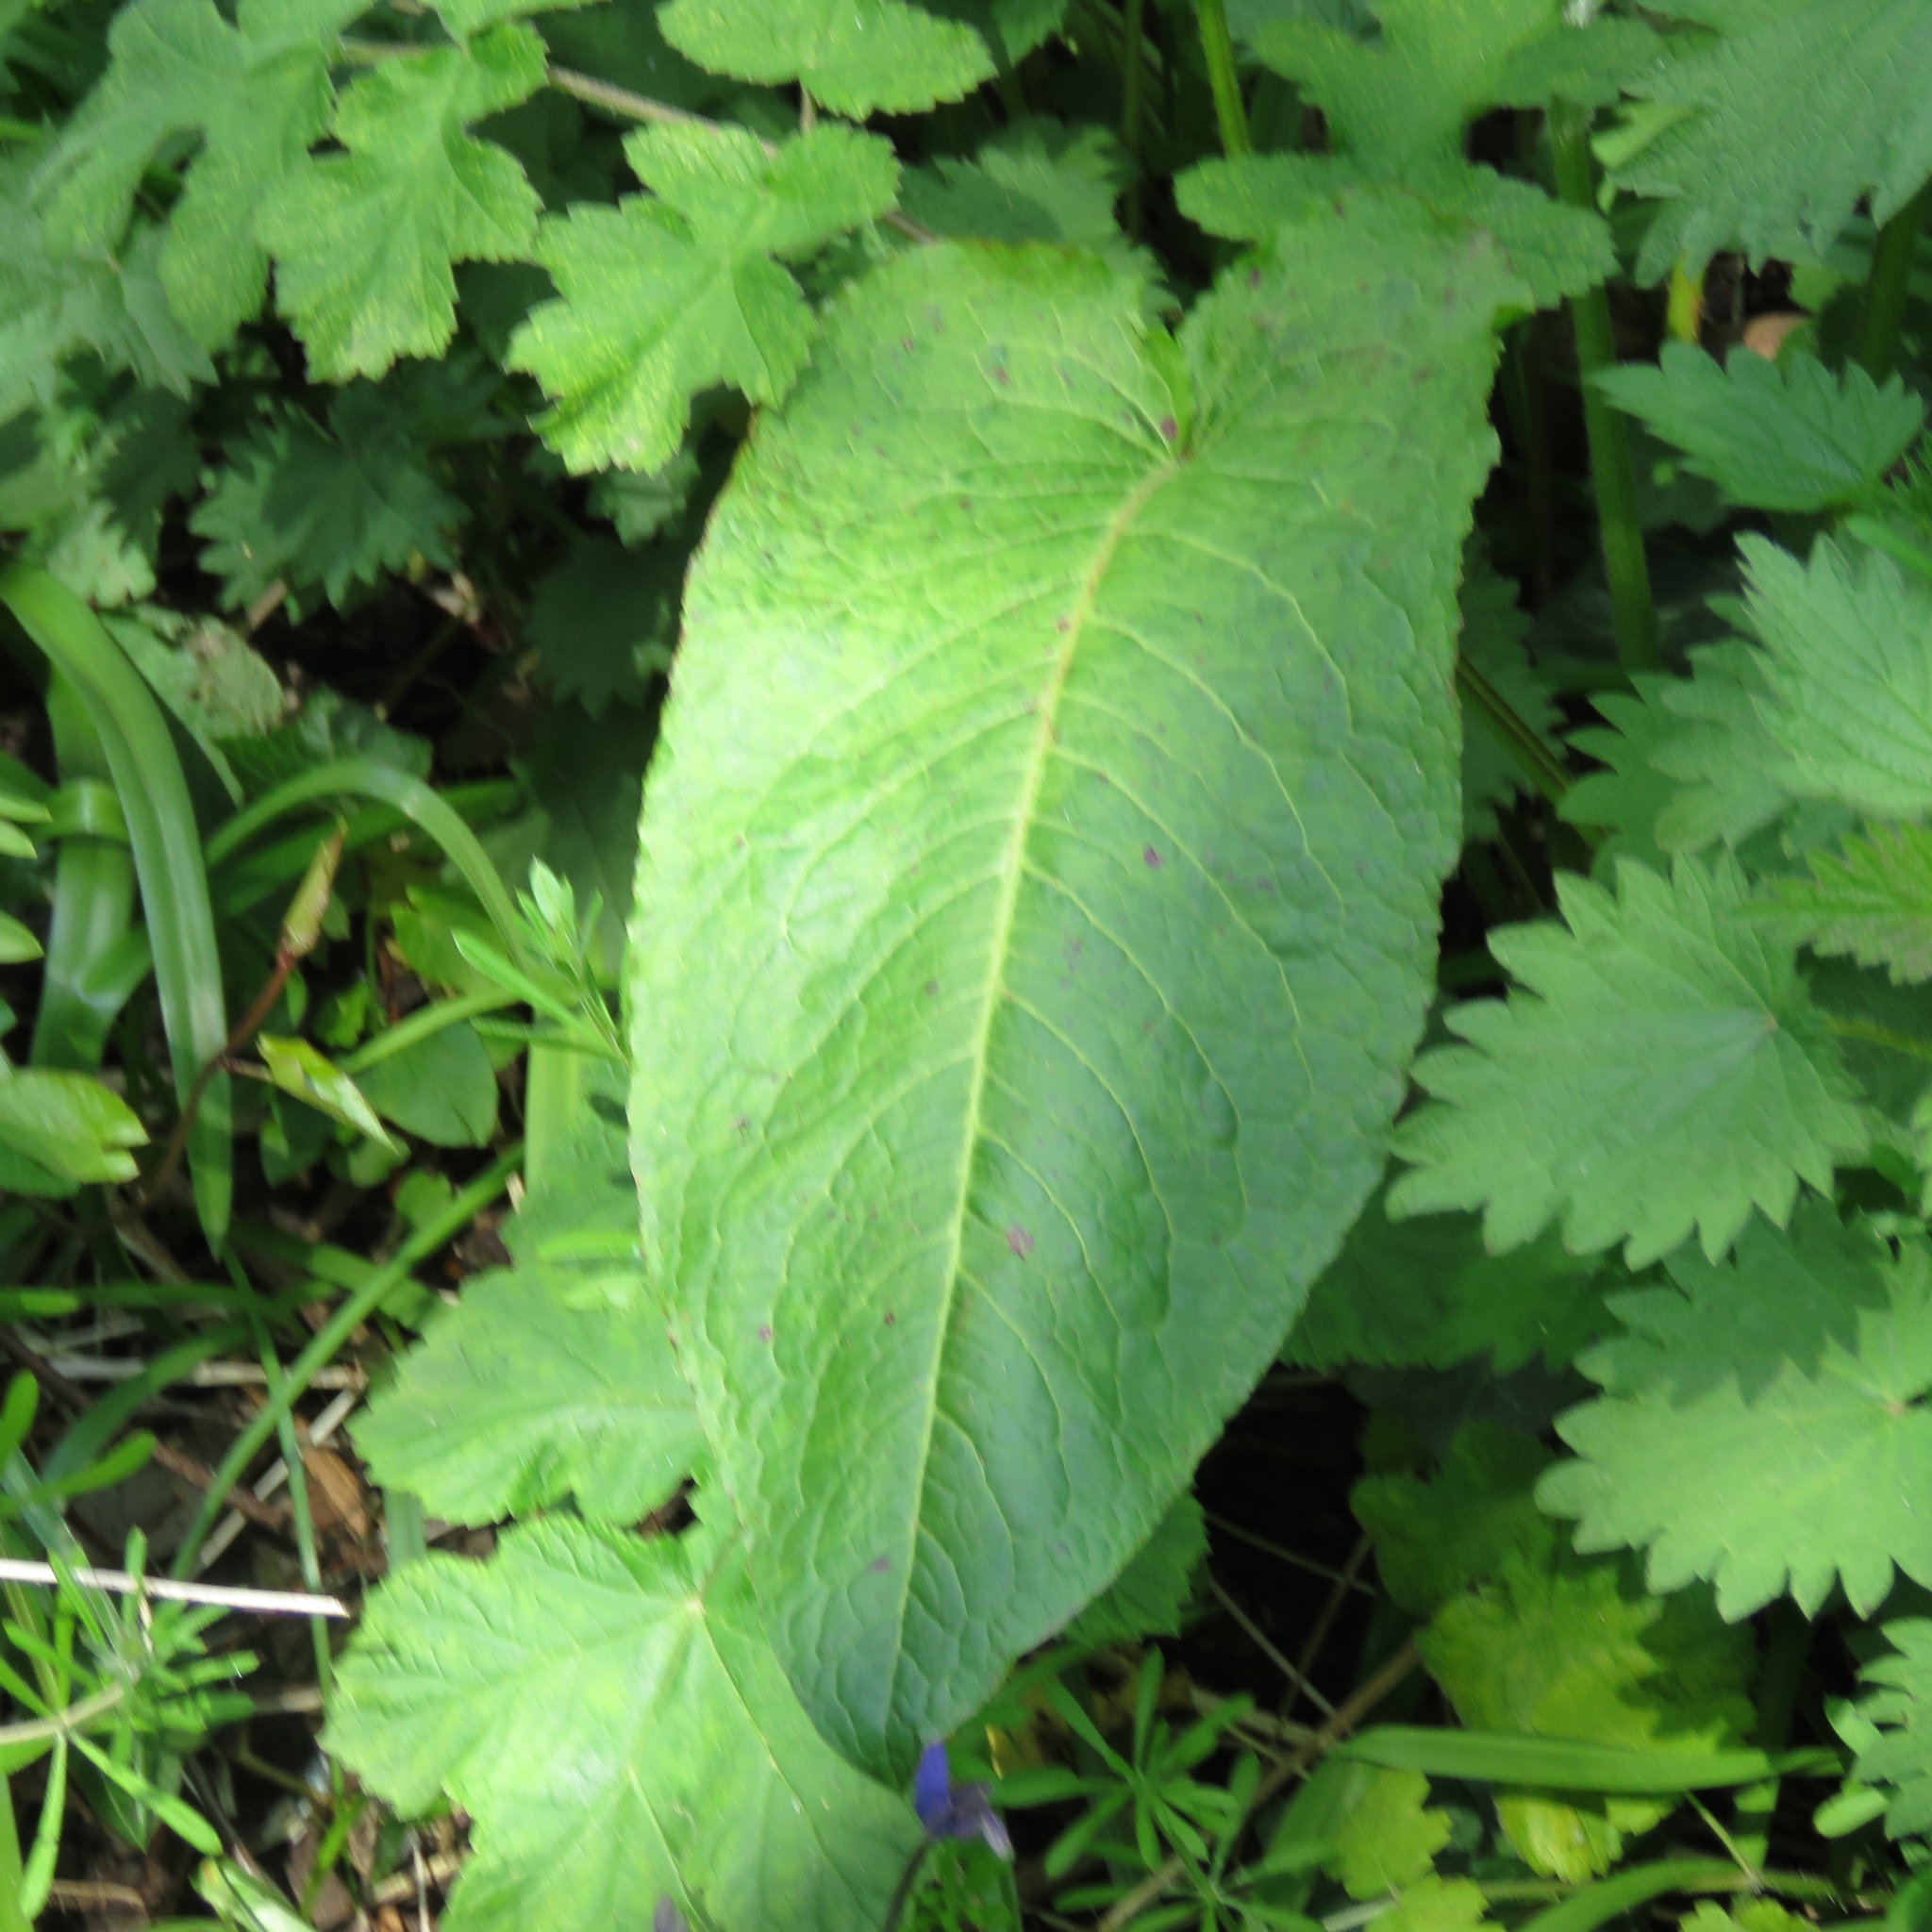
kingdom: Plantae
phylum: Tracheophyta
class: Magnoliopsida
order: Caryophyllales
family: Polygonaceae
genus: Rumex
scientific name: Rumex obtusifolius
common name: Bitter dock
